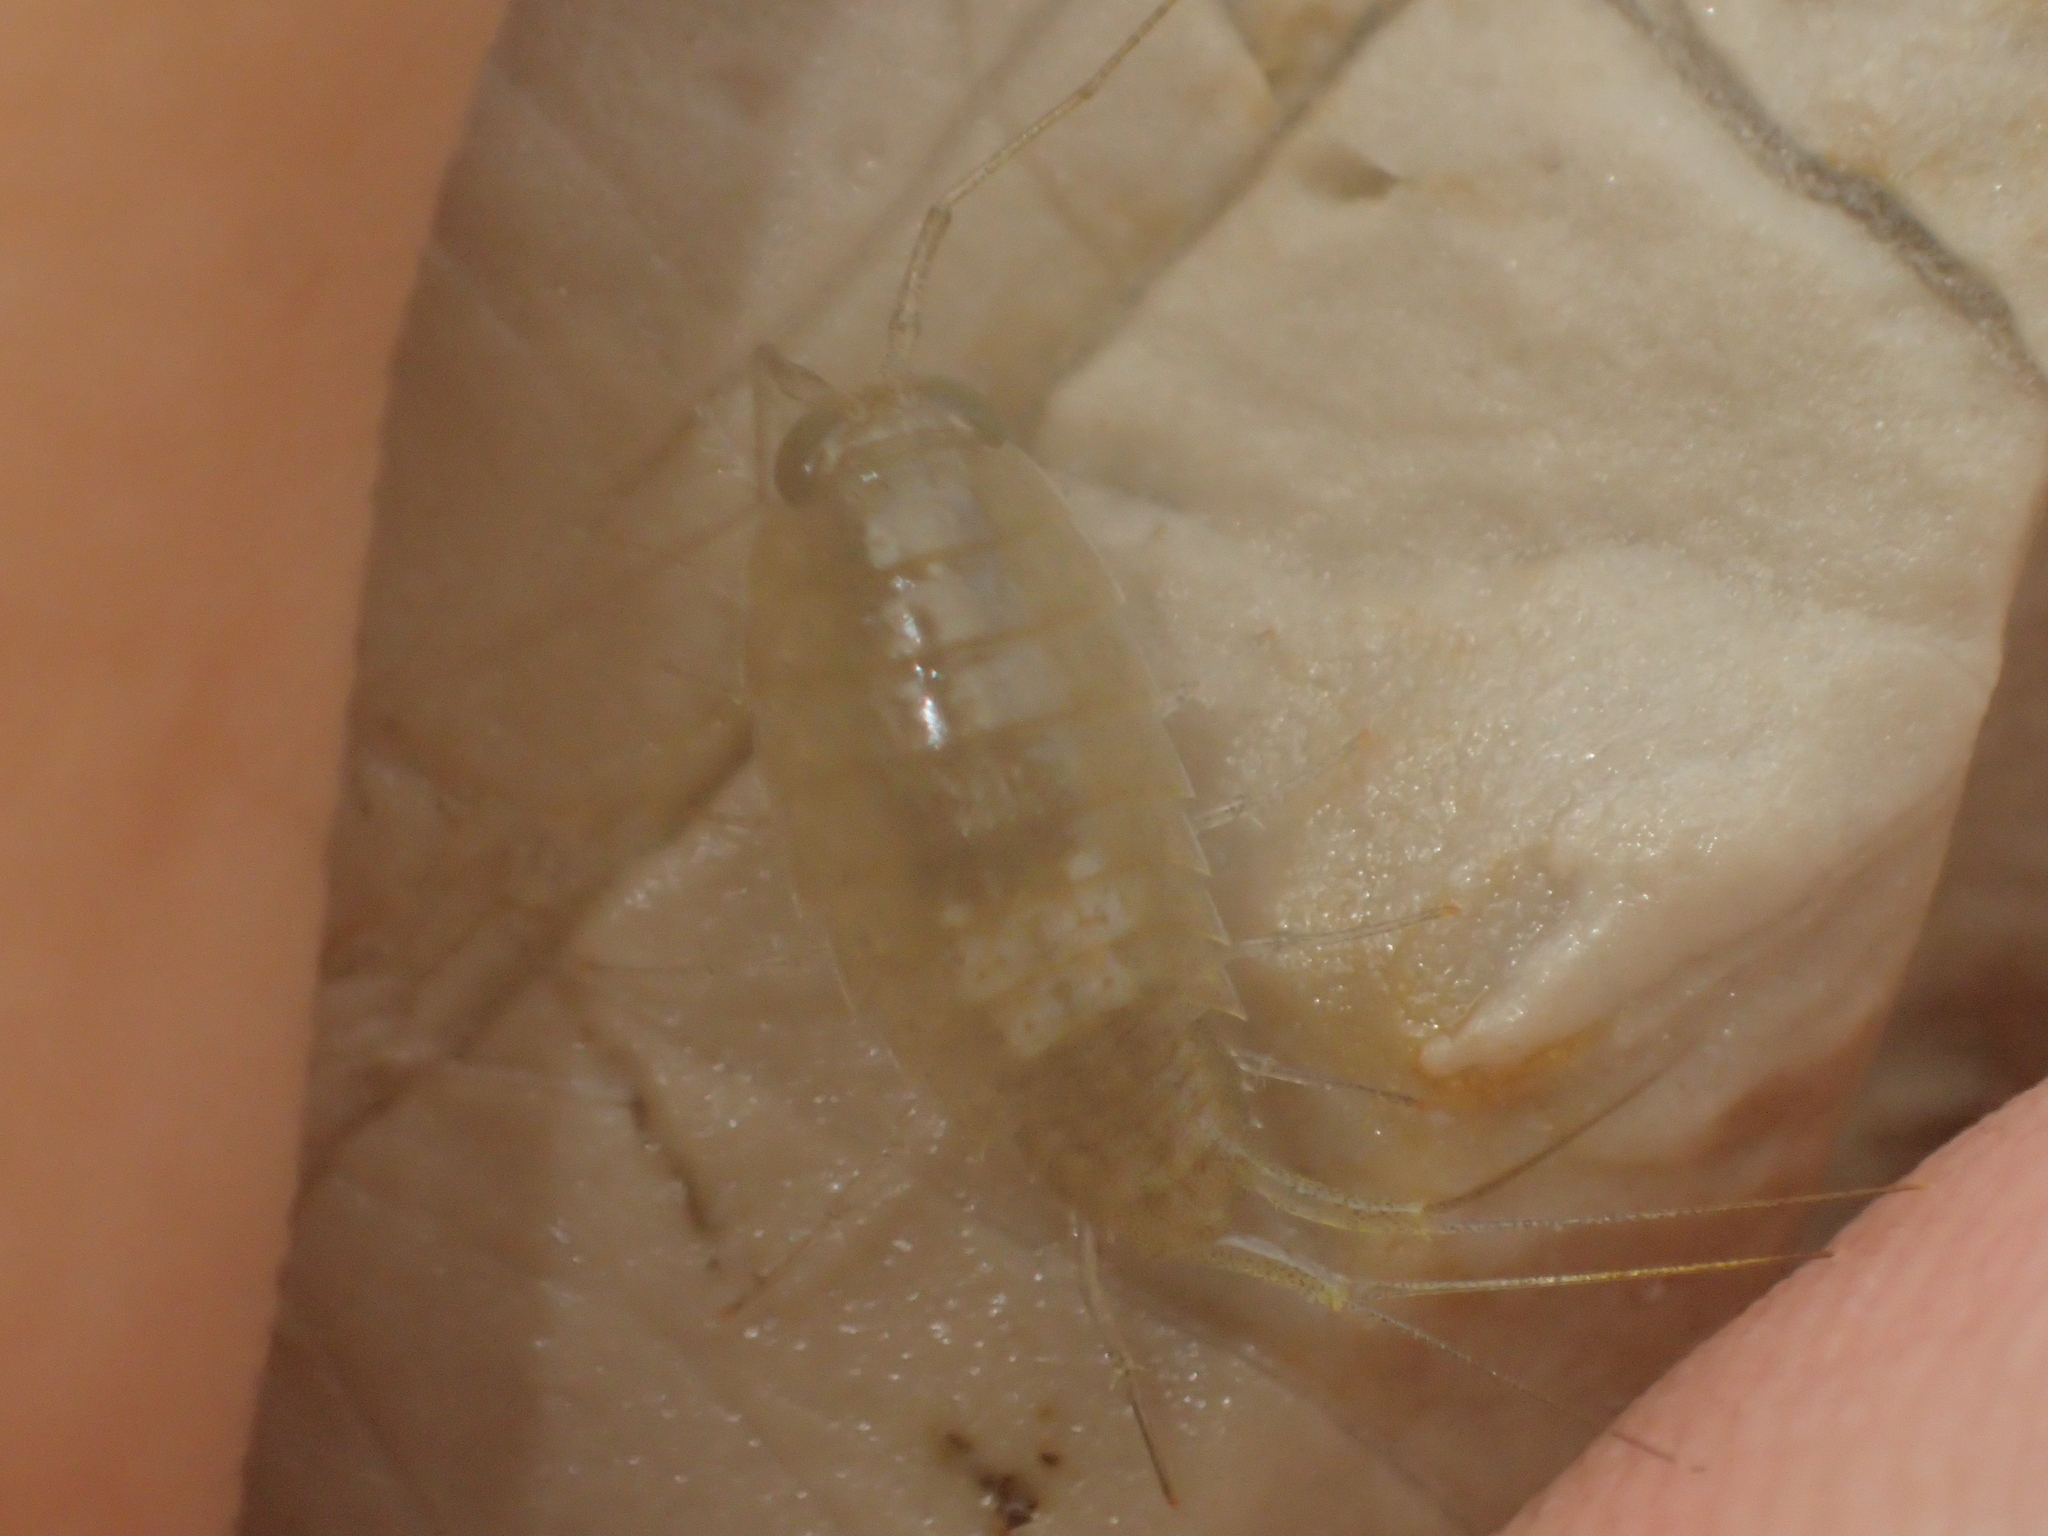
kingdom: Animalia
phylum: Arthropoda
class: Malacostraca
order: Isopoda
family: Ligiidae
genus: Ligia
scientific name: Ligia italica
